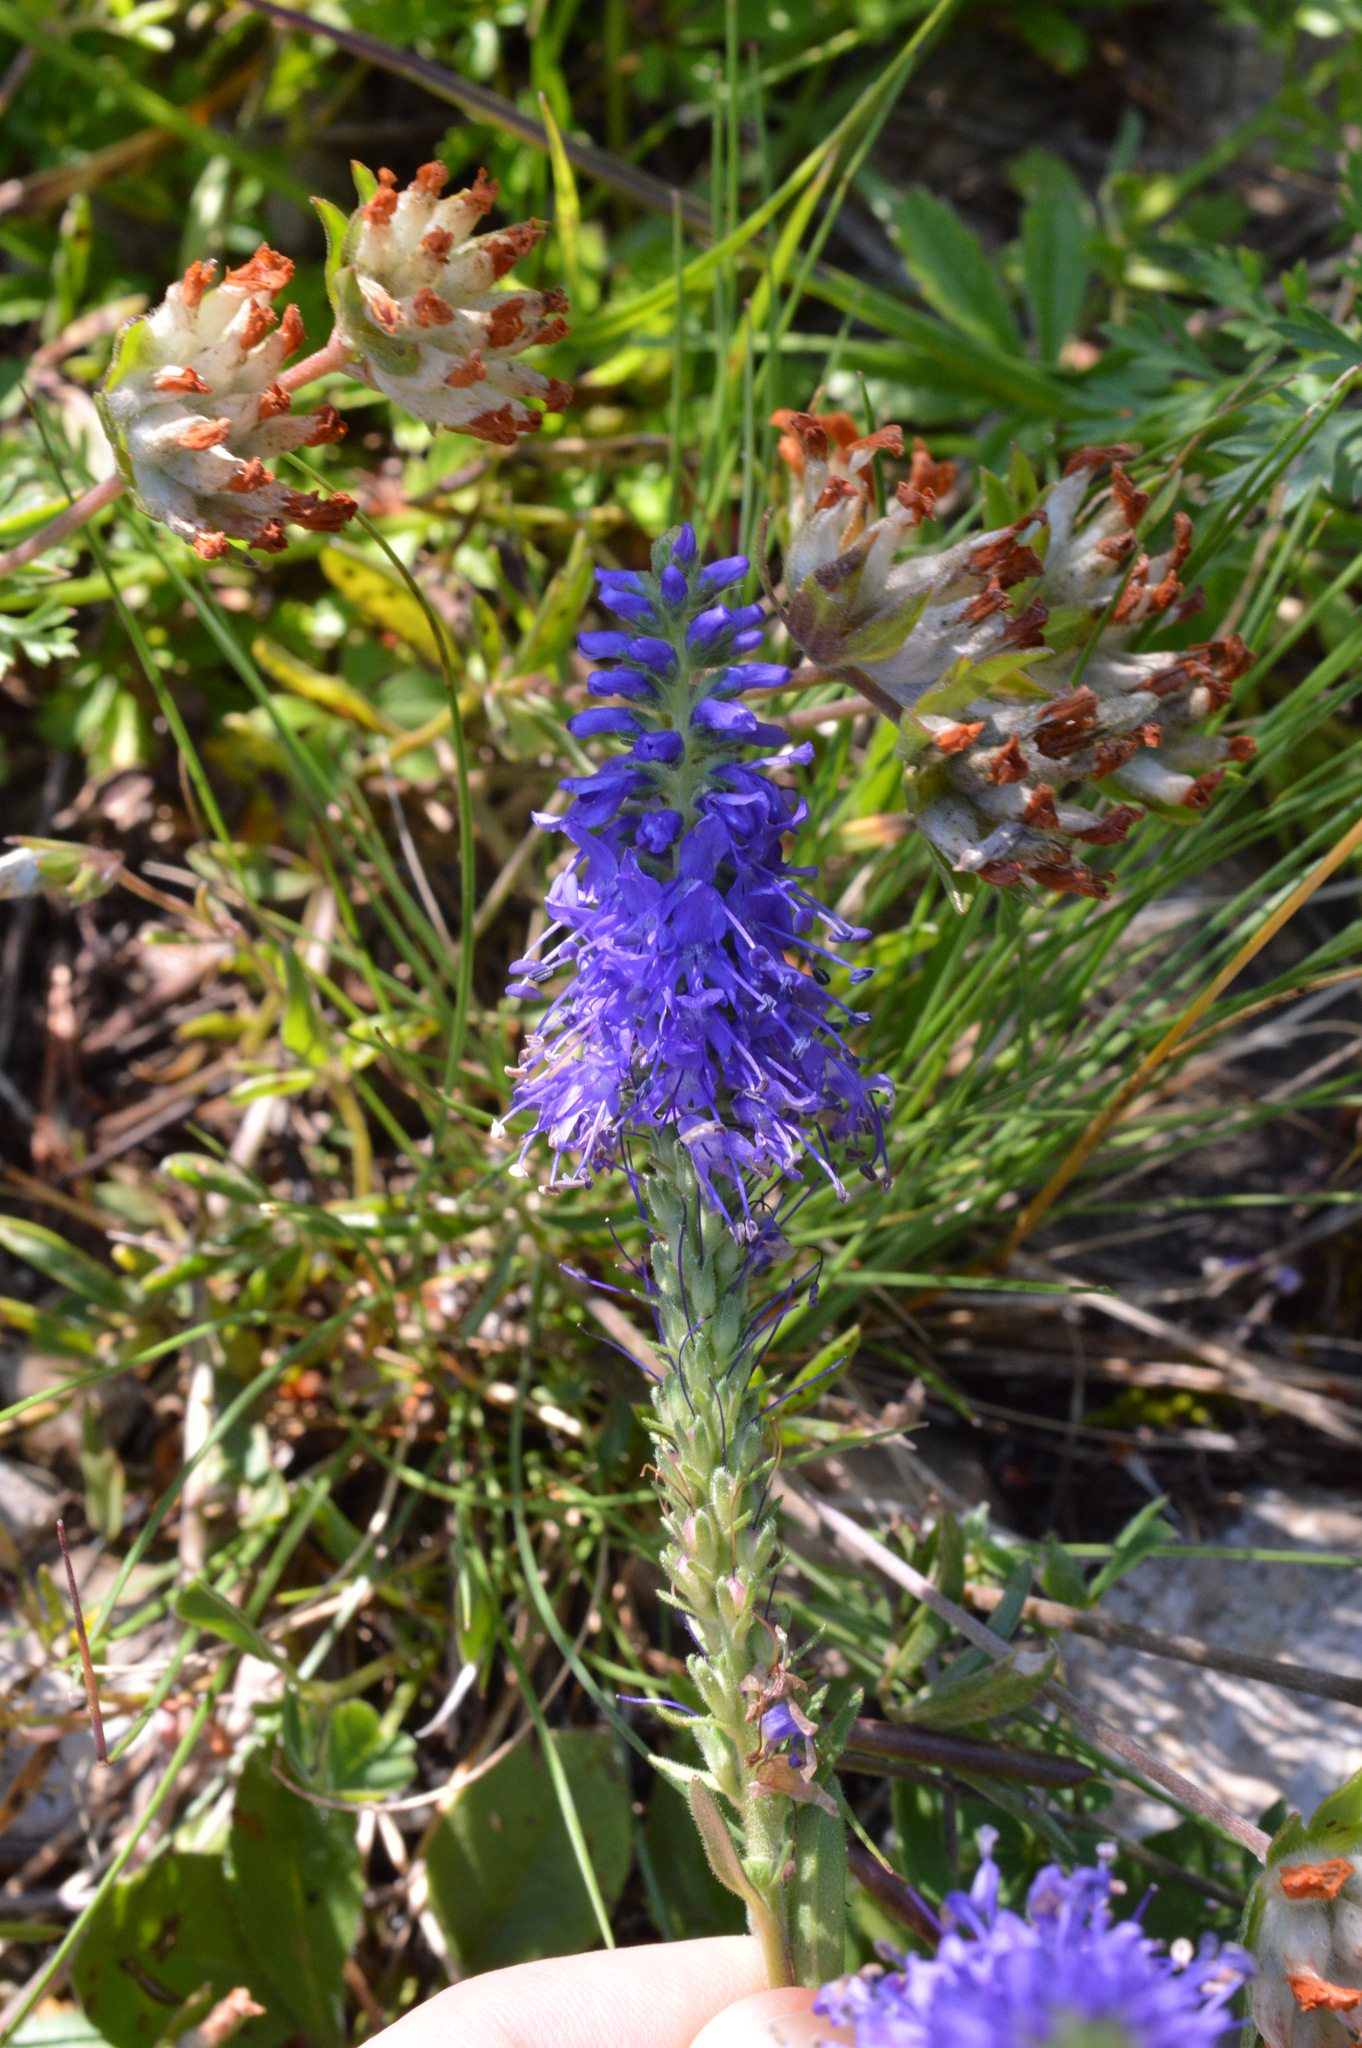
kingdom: Plantae
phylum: Tracheophyta
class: Magnoliopsida
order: Lamiales
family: Plantaginaceae
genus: Veronica
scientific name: Veronica spicata
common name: Spiked speedwell
